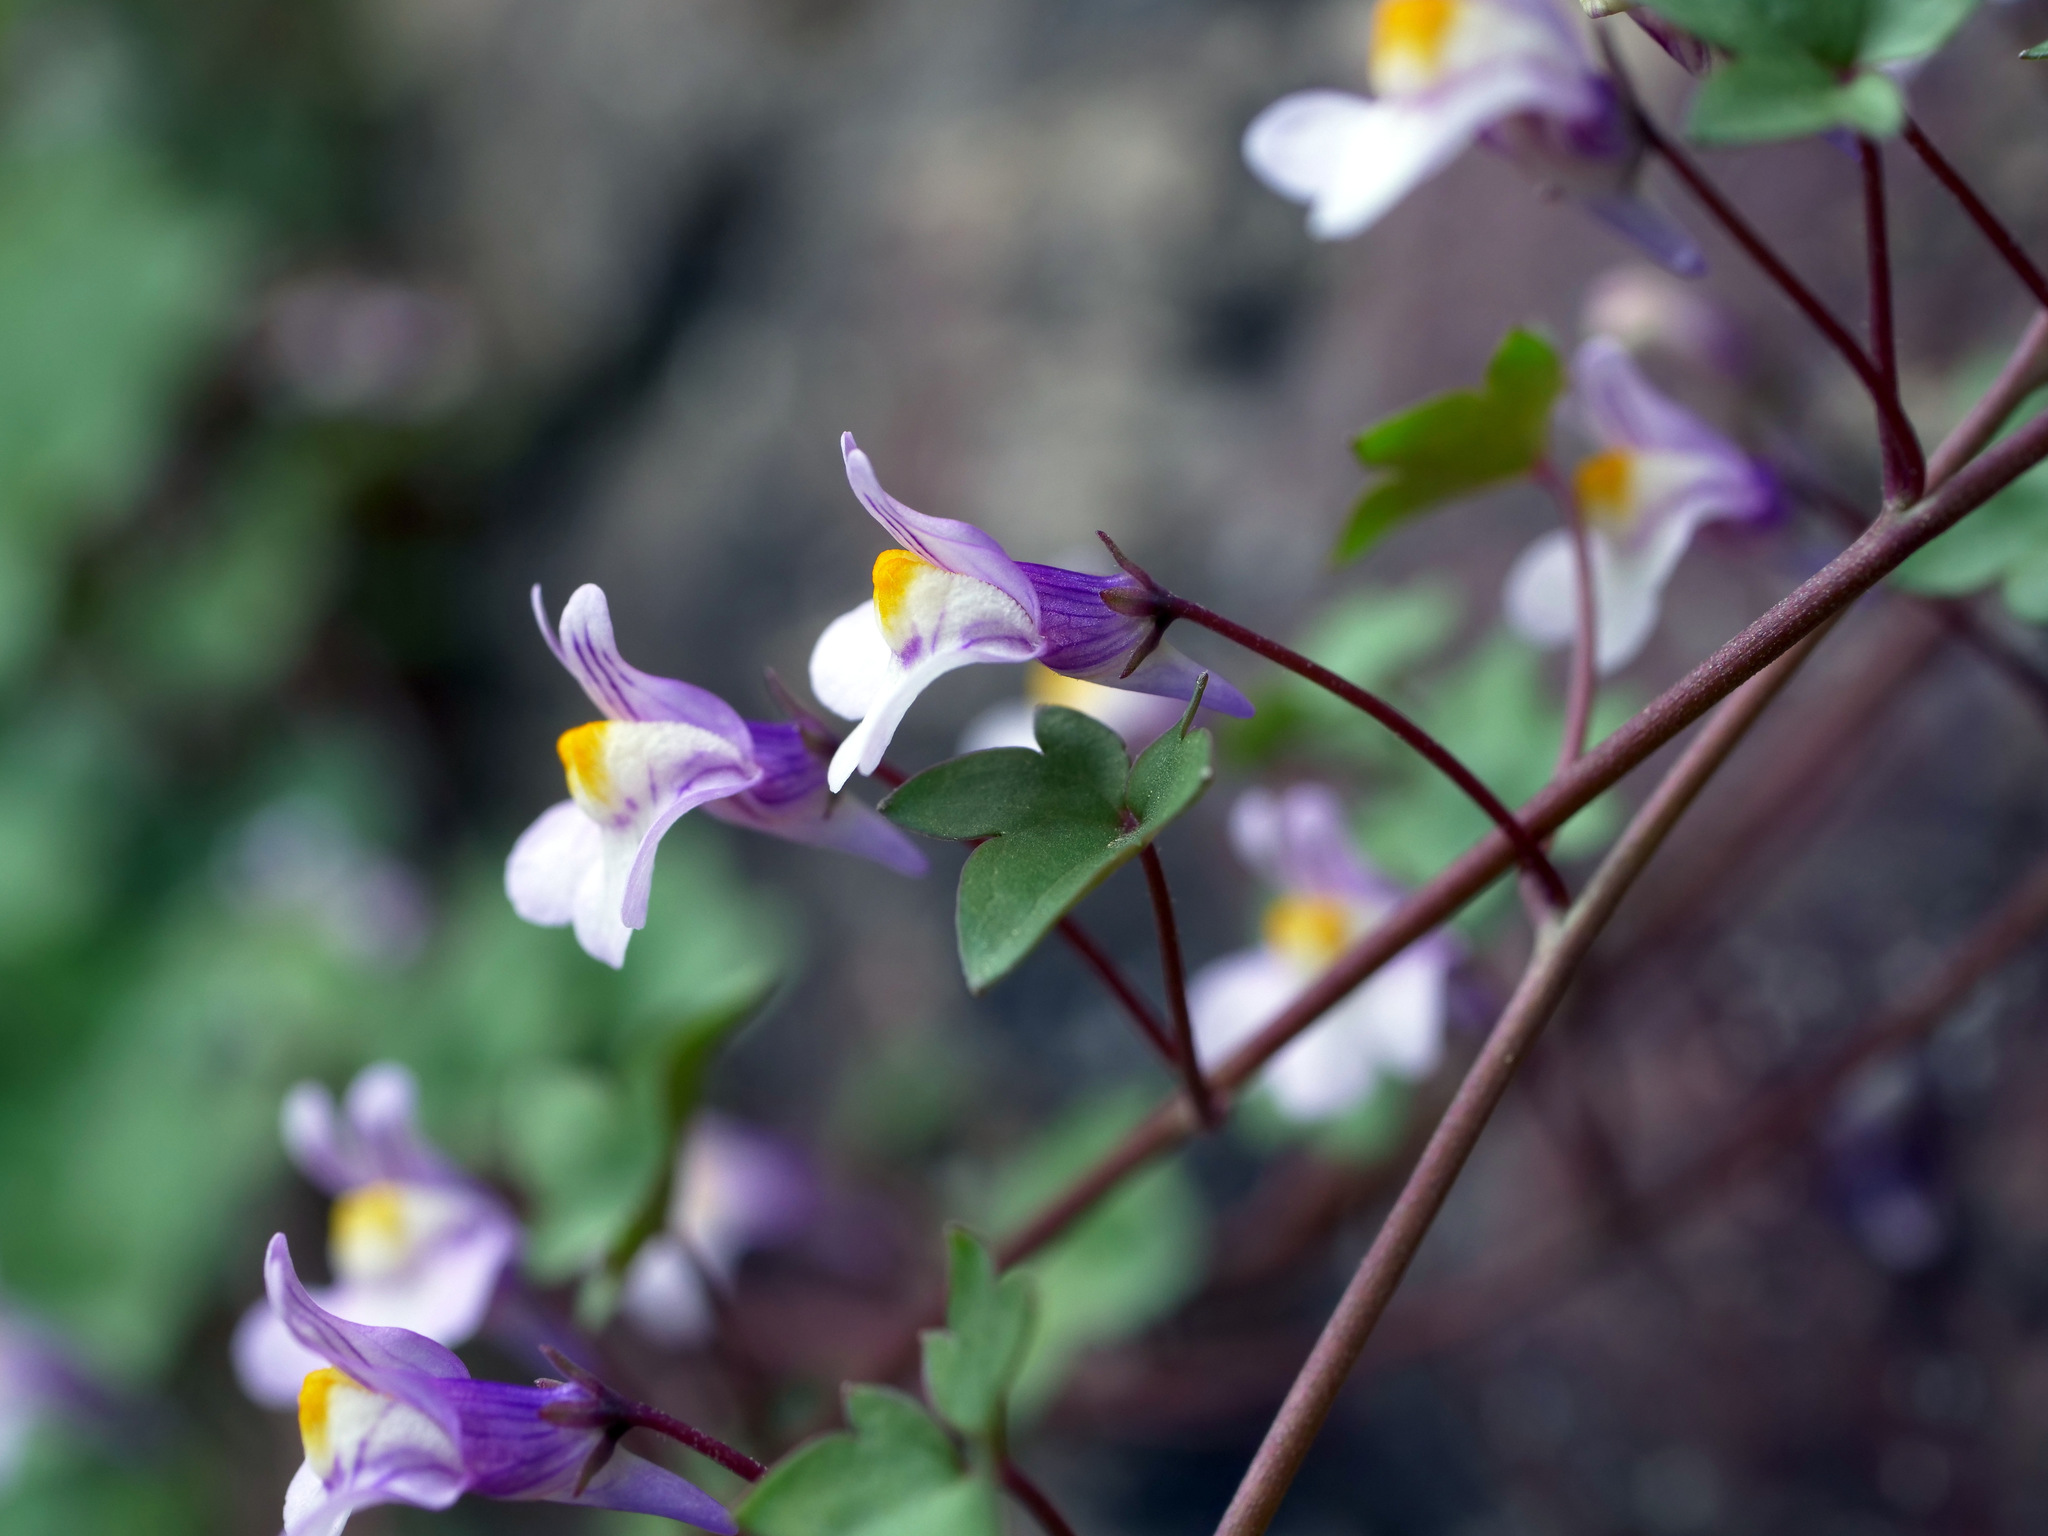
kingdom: Plantae
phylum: Tracheophyta
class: Magnoliopsida
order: Lamiales
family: Plantaginaceae
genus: Cymbalaria
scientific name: Cymbalaria muralis
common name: Ivy-leaved toadflax
